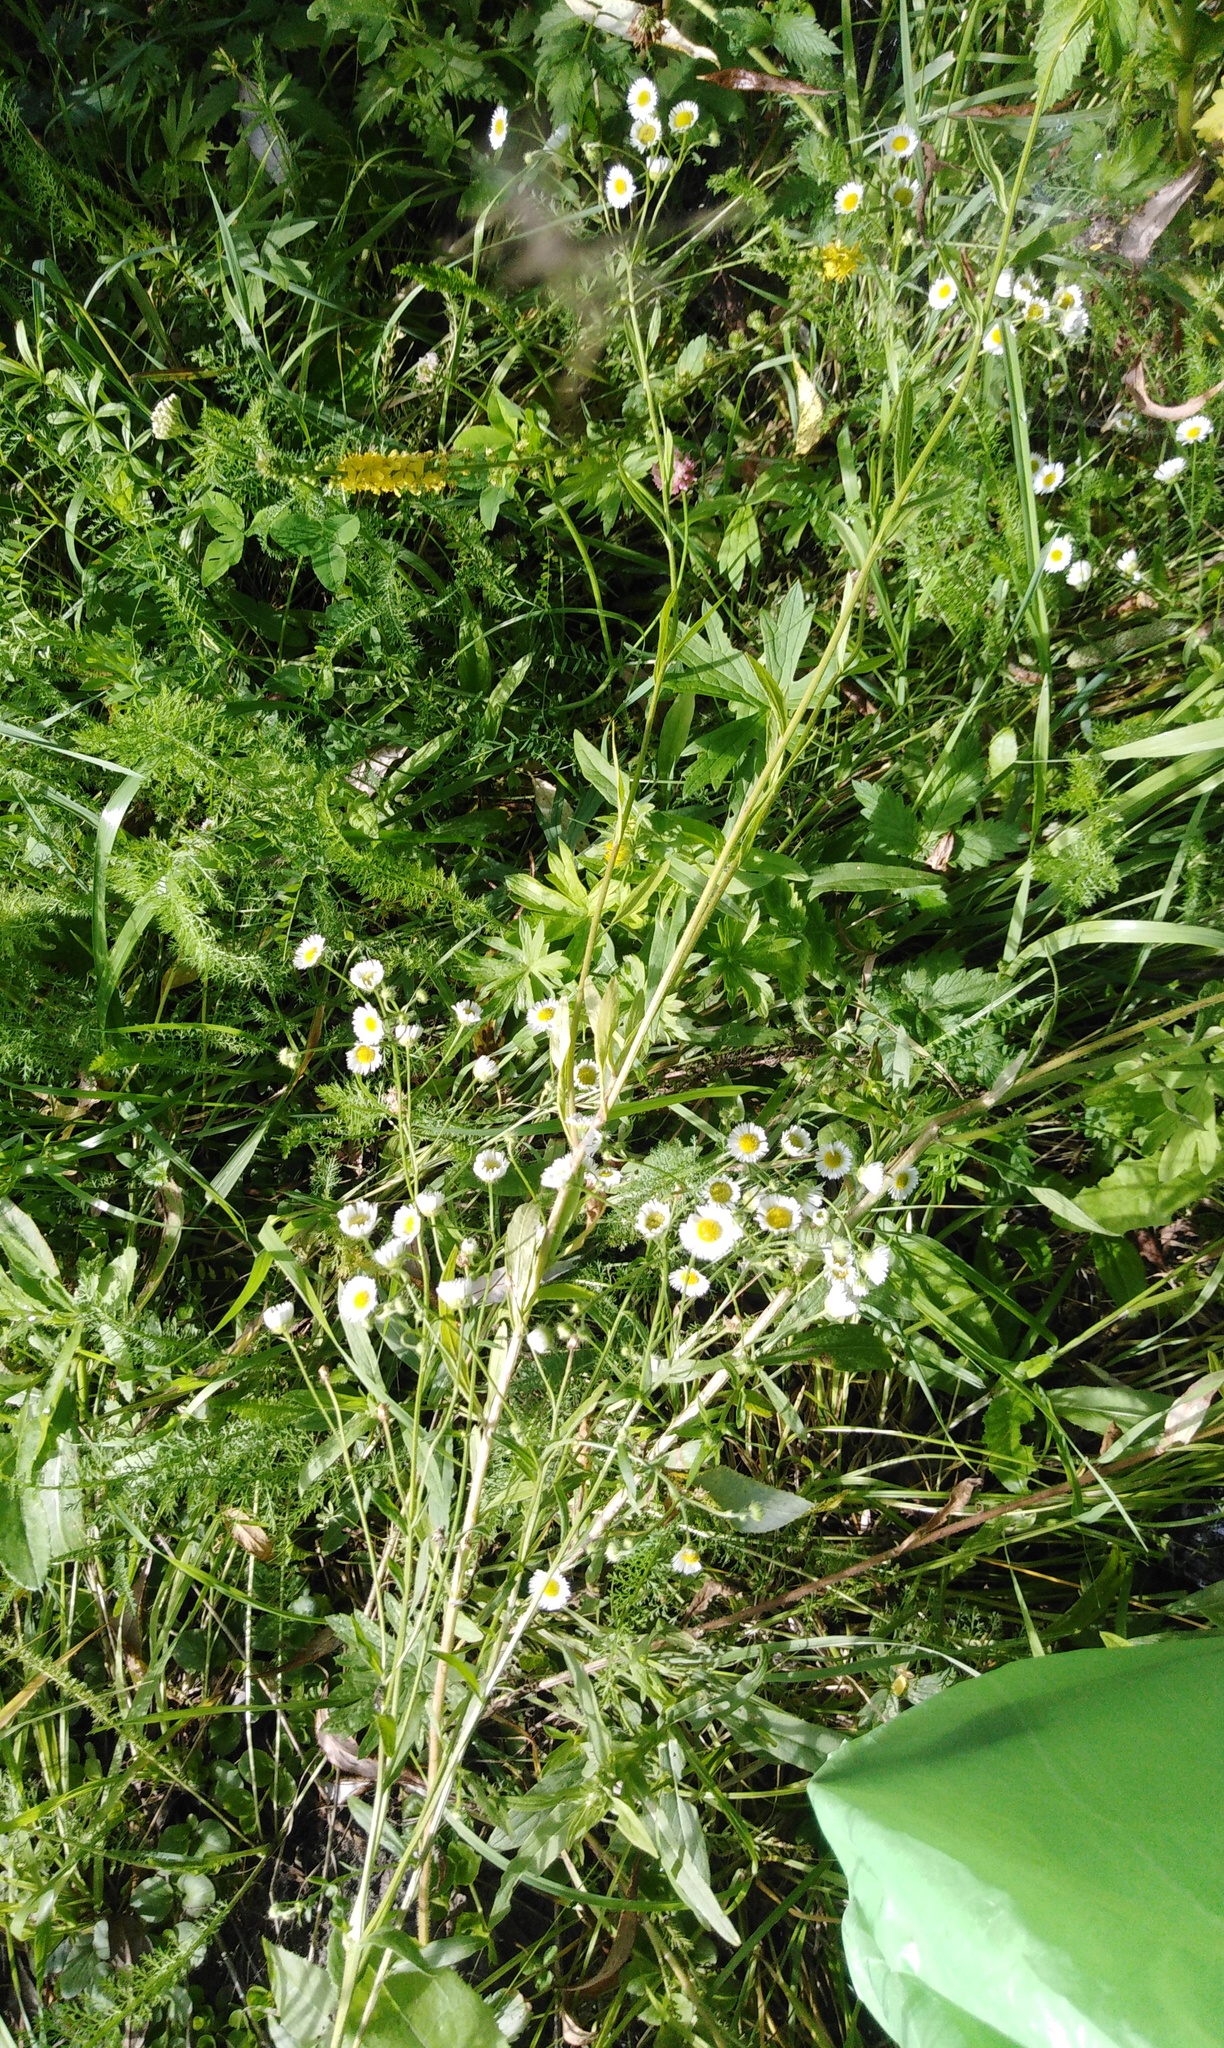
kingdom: Plantae
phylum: Tracheophyta
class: Magnoliopsida
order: Asterales
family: Asteraceae
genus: Erigeron
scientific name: Erigeron annuus
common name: Tall fleabane
